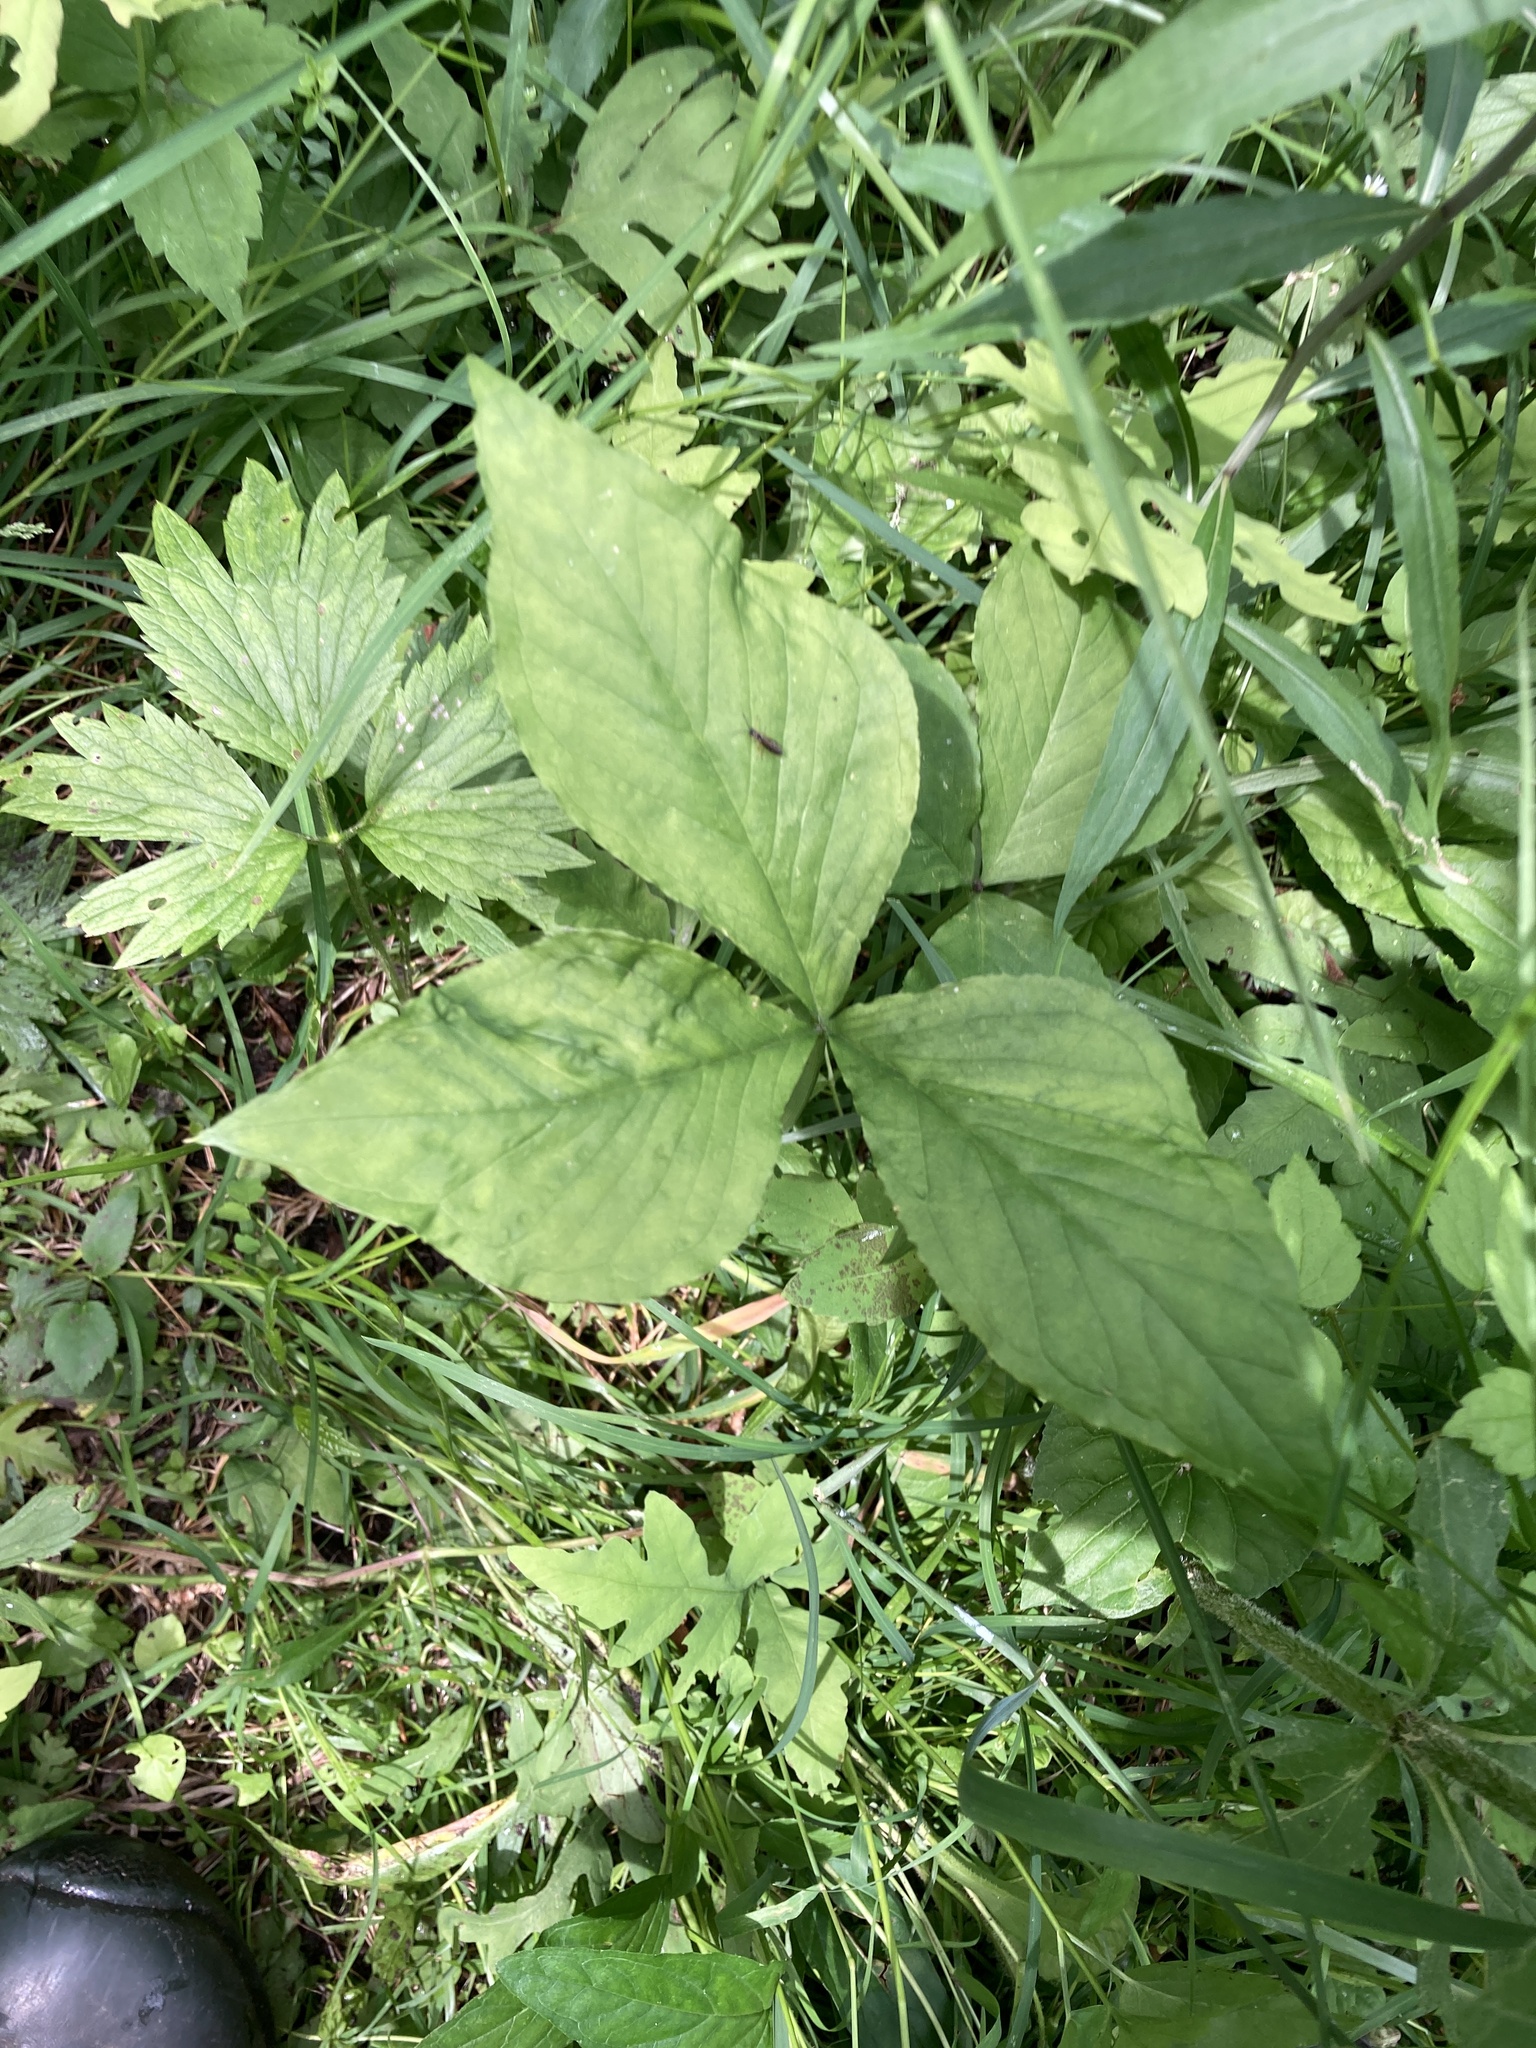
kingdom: Plantae
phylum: Tracheophyta
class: Liliopsida
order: Alismatales
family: Araceae
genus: Arisaema
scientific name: Arisaema triphyllum
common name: Jack-in-the-pulpit
